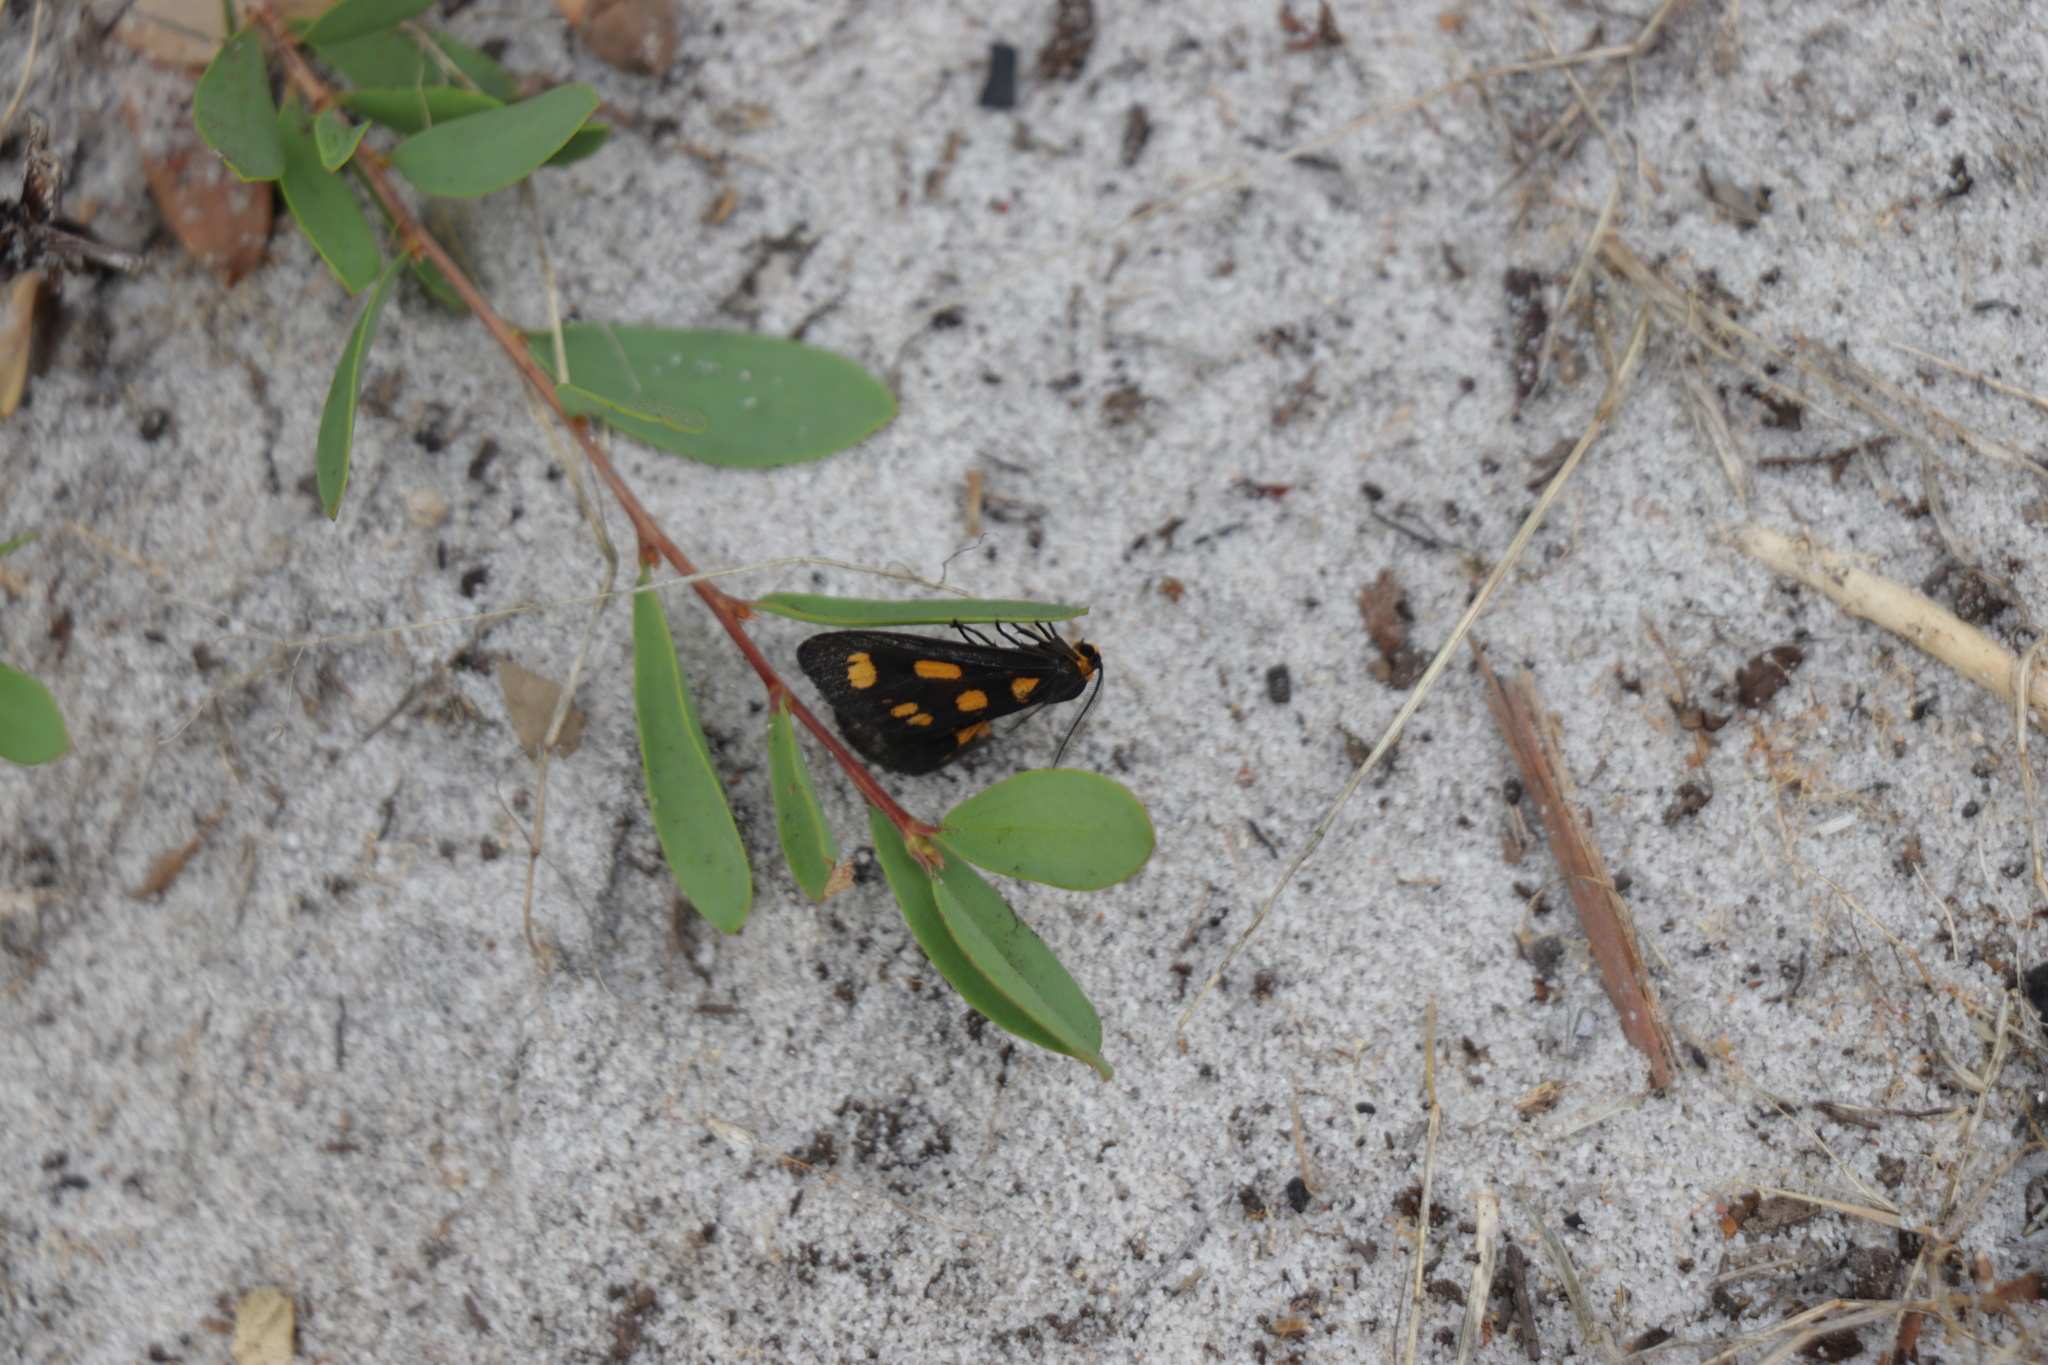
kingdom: Animalia
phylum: Arthropoda
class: Insecta
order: Lepidoptera
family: Erebidae
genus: Asura
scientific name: Asura cervicalis
